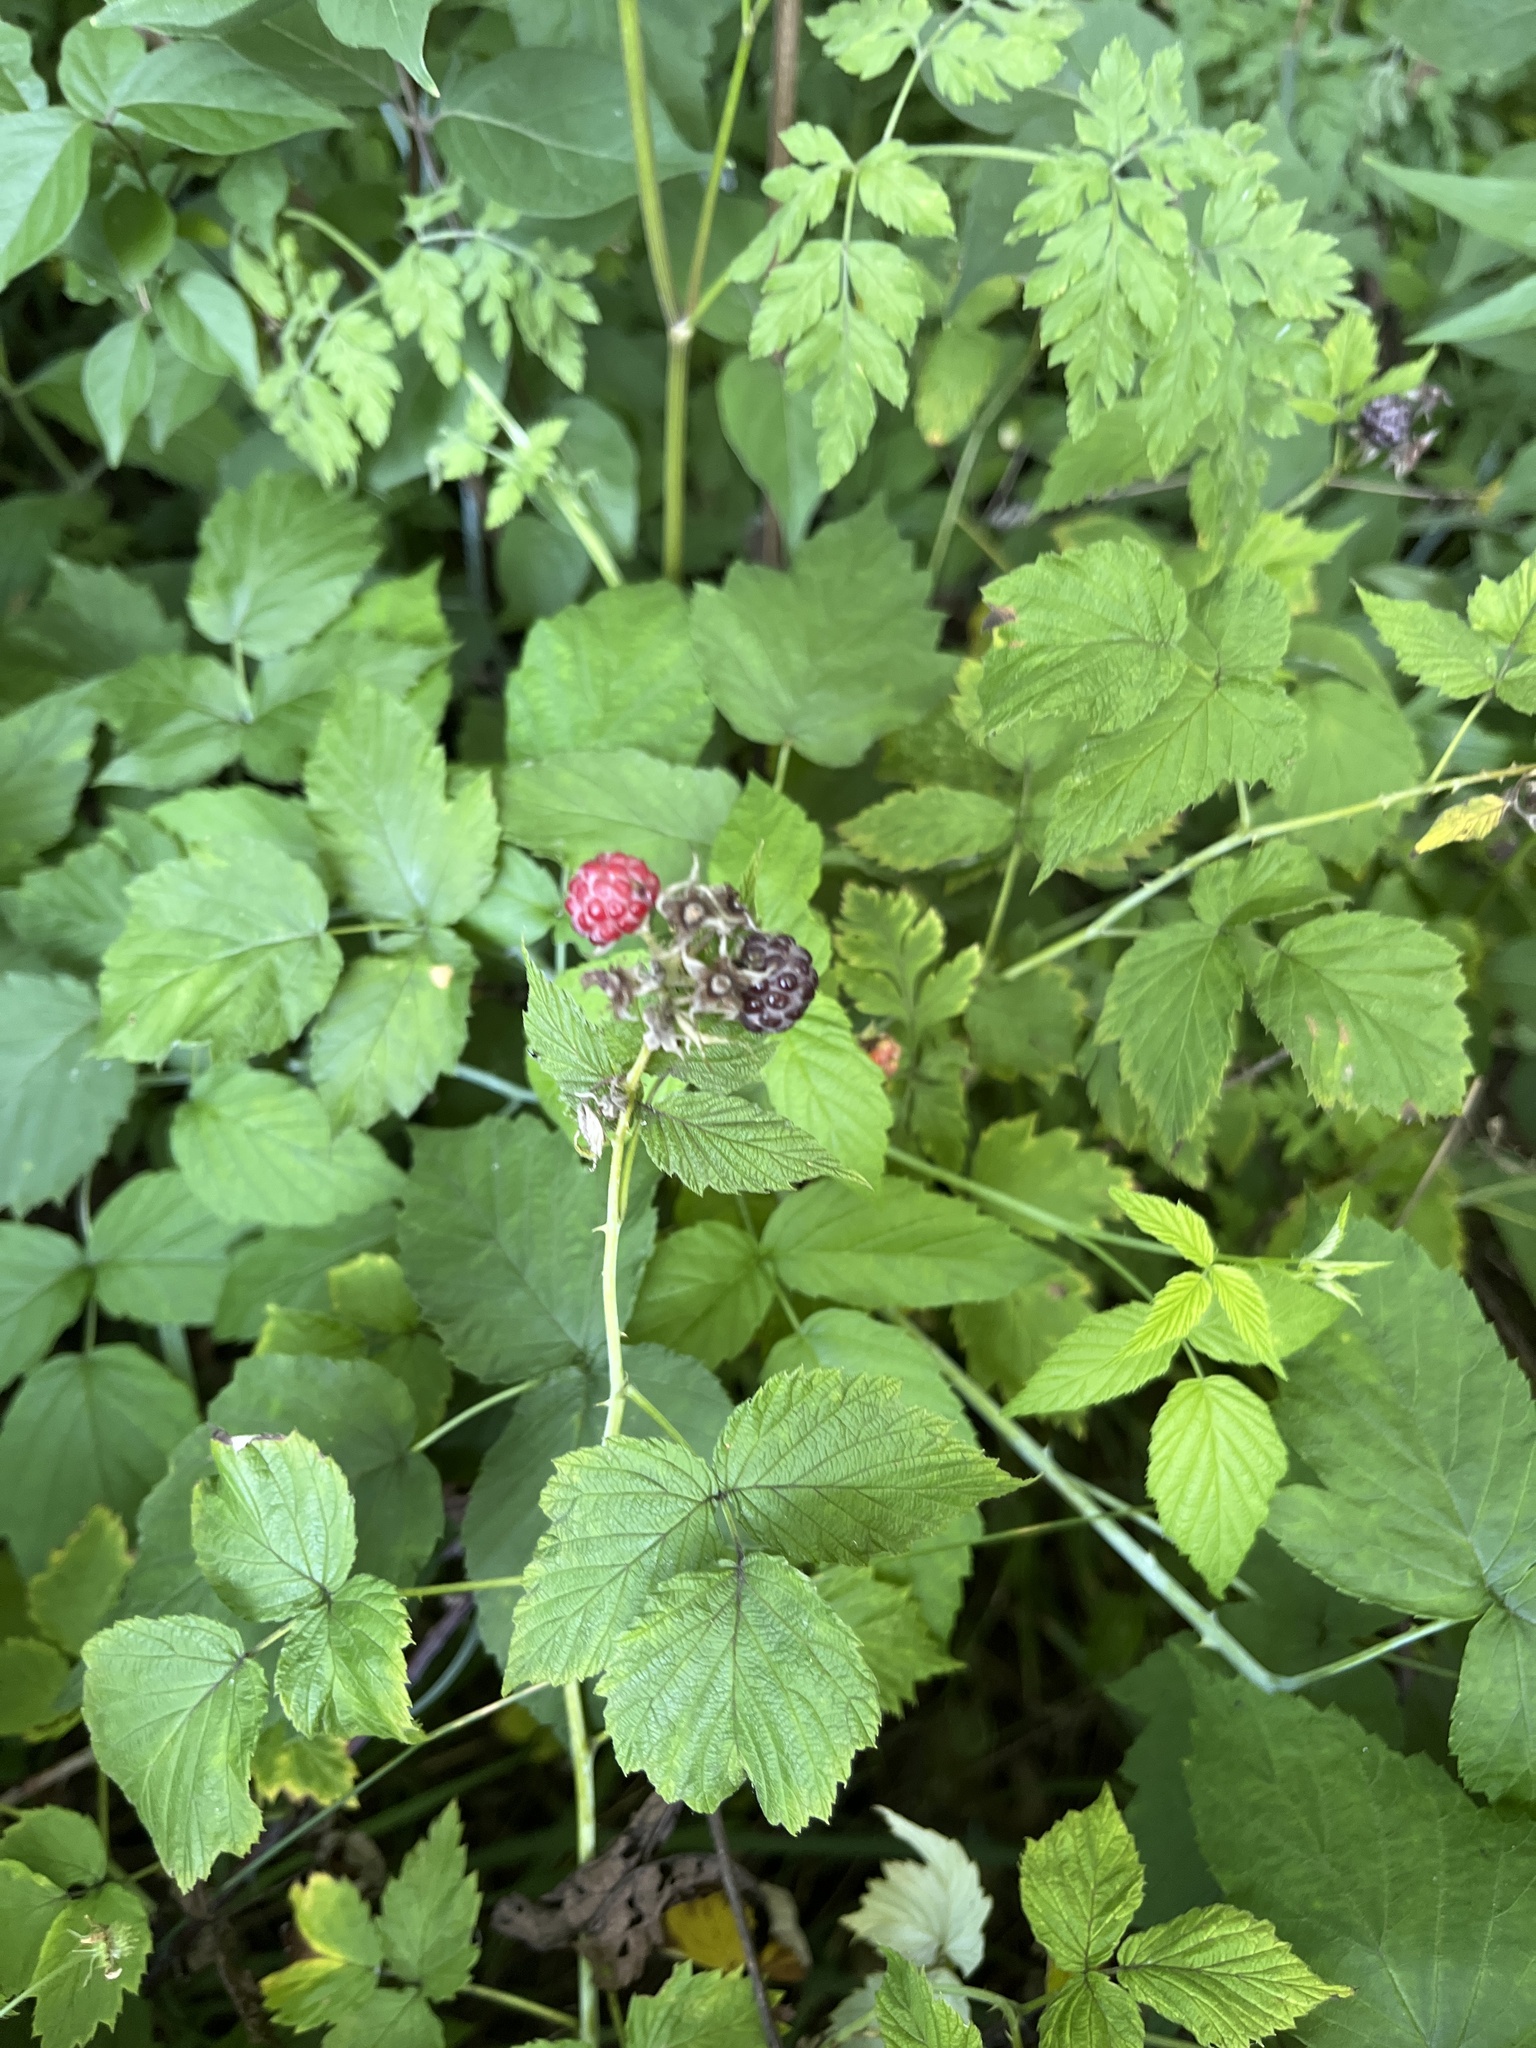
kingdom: Plantae
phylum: Tracheophyta
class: Magnoliopsida
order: Rosales
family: Rosaceae
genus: Rubus
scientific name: Rubus occidentalis
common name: Black raspberry
